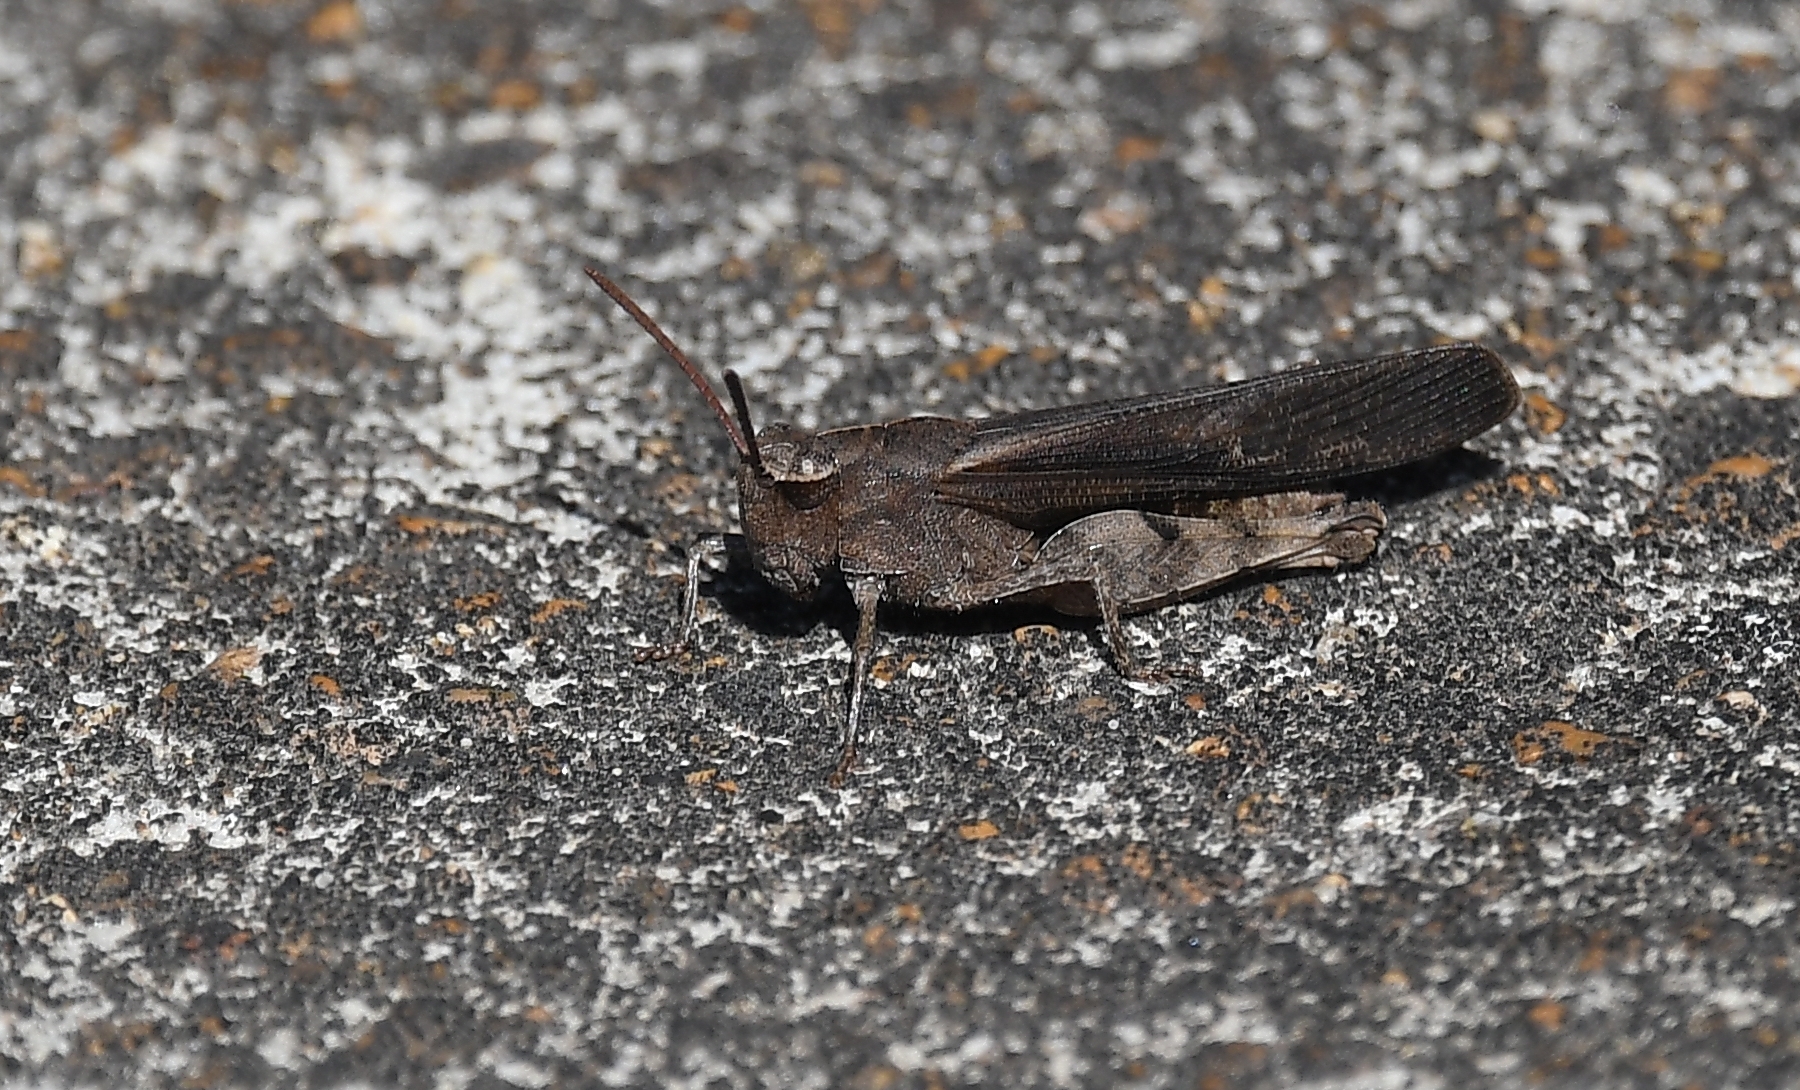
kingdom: Animalia
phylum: Arthropoda
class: Insecta
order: Orthoptera
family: Acrididae
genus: Chortophaga
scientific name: Chortophaga viridifasciata
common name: Green-striped grasshopper
